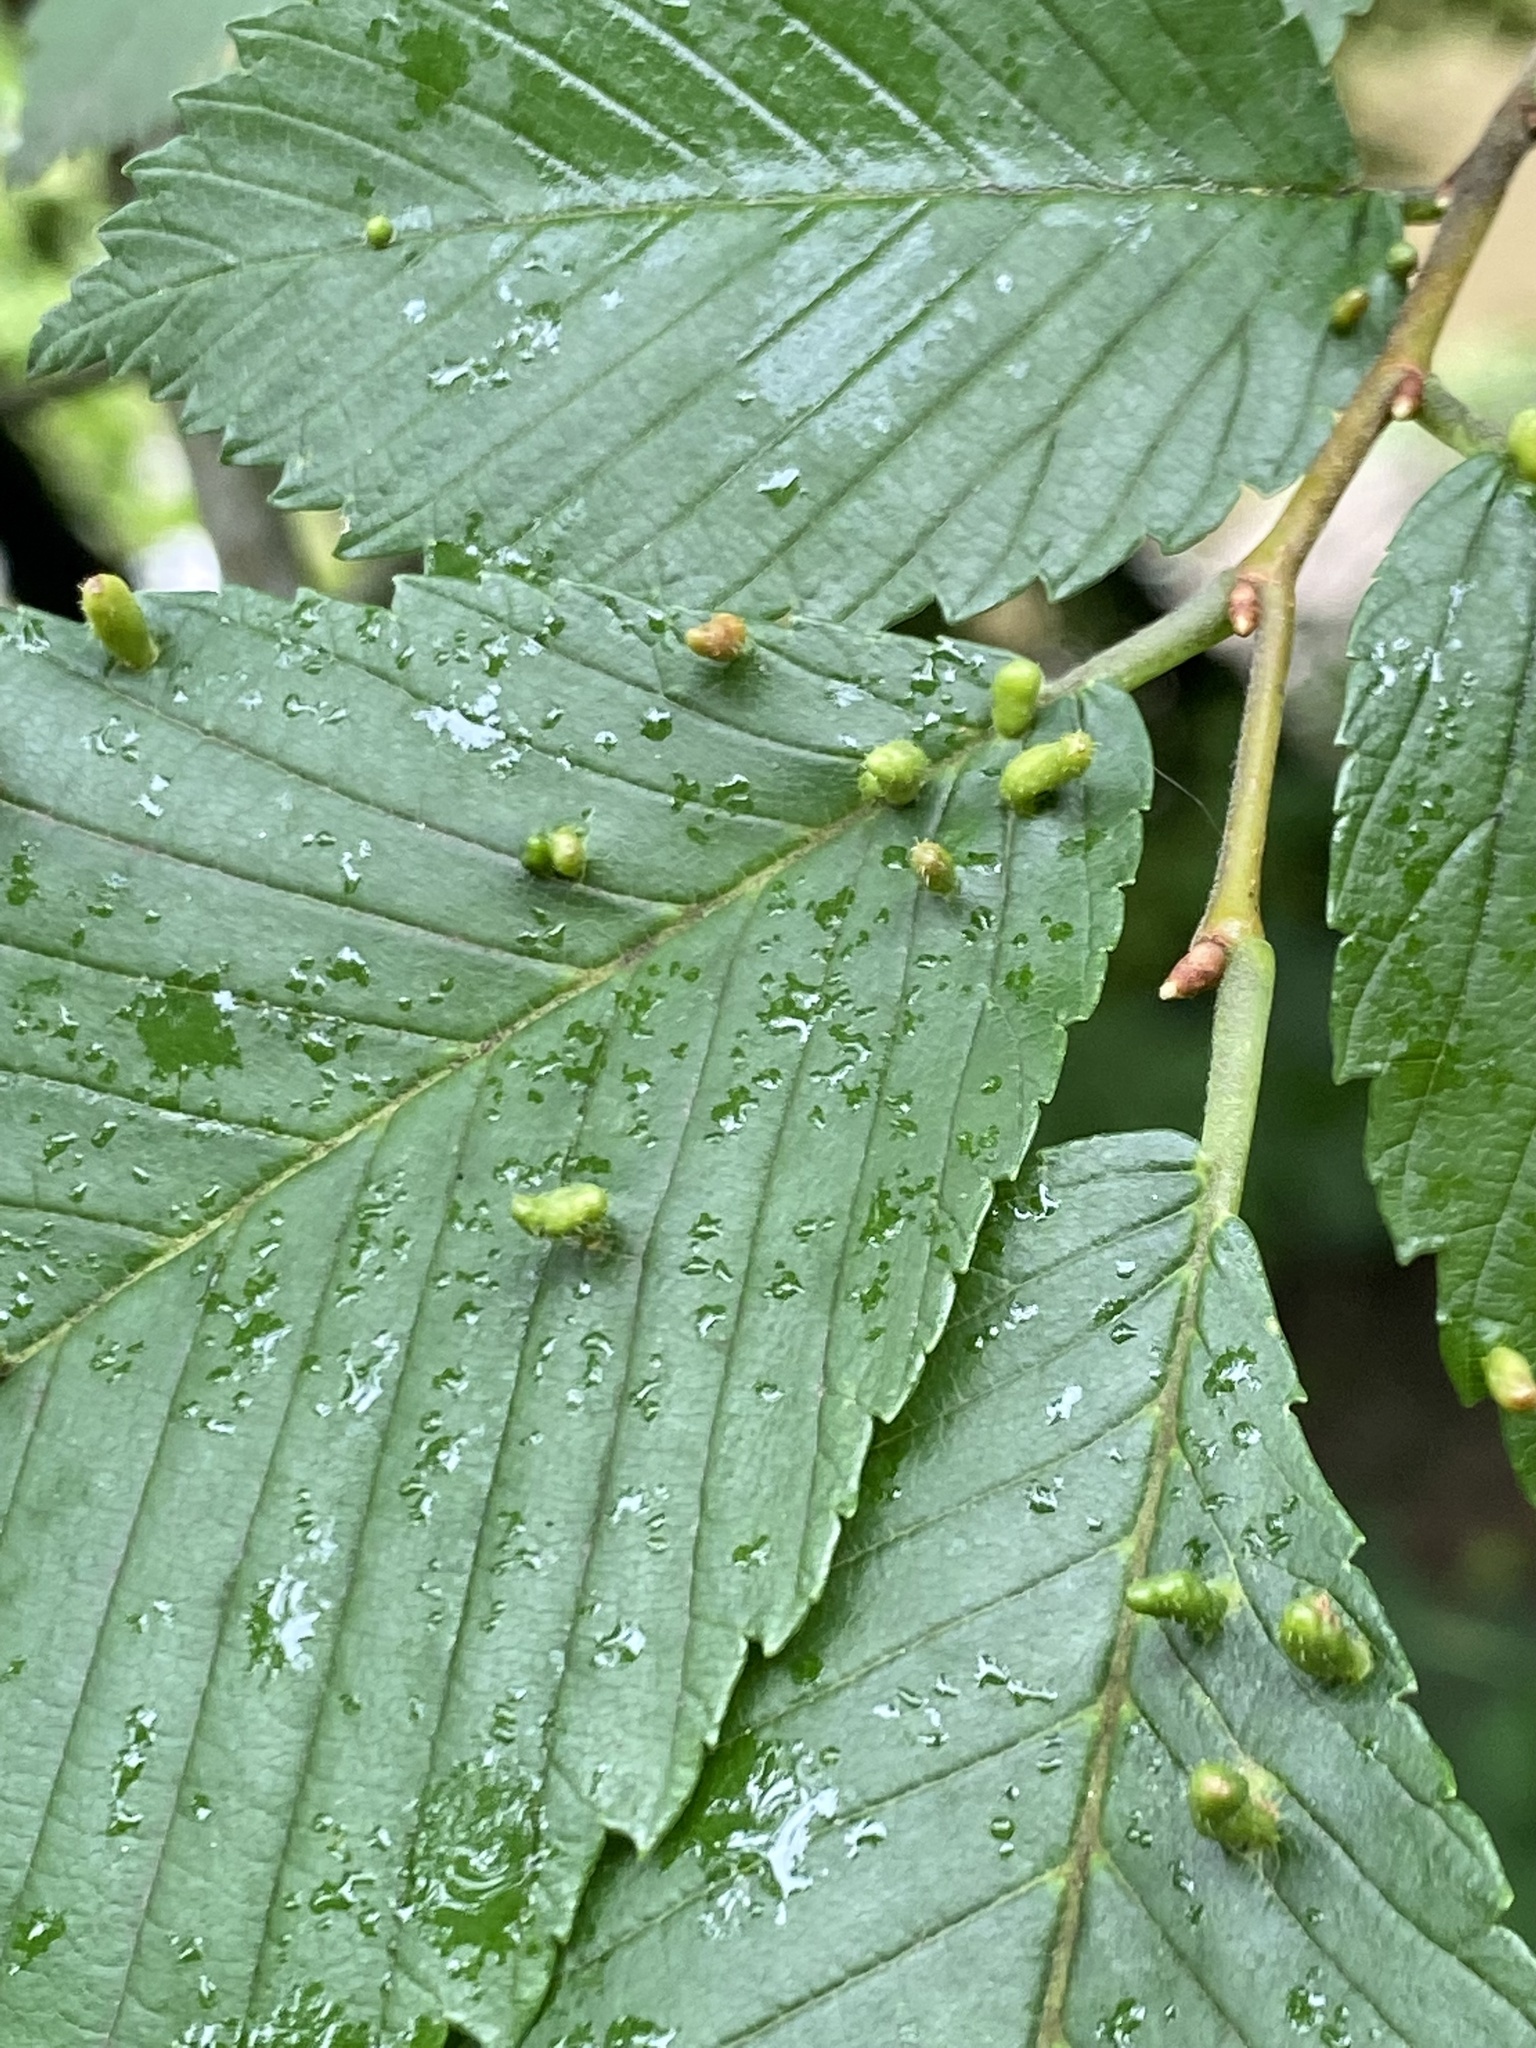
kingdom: Animalia
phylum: Arthropoda
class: Arachnida
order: Trombidiformes
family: Eriophyidae
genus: Aceria
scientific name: Aceria
